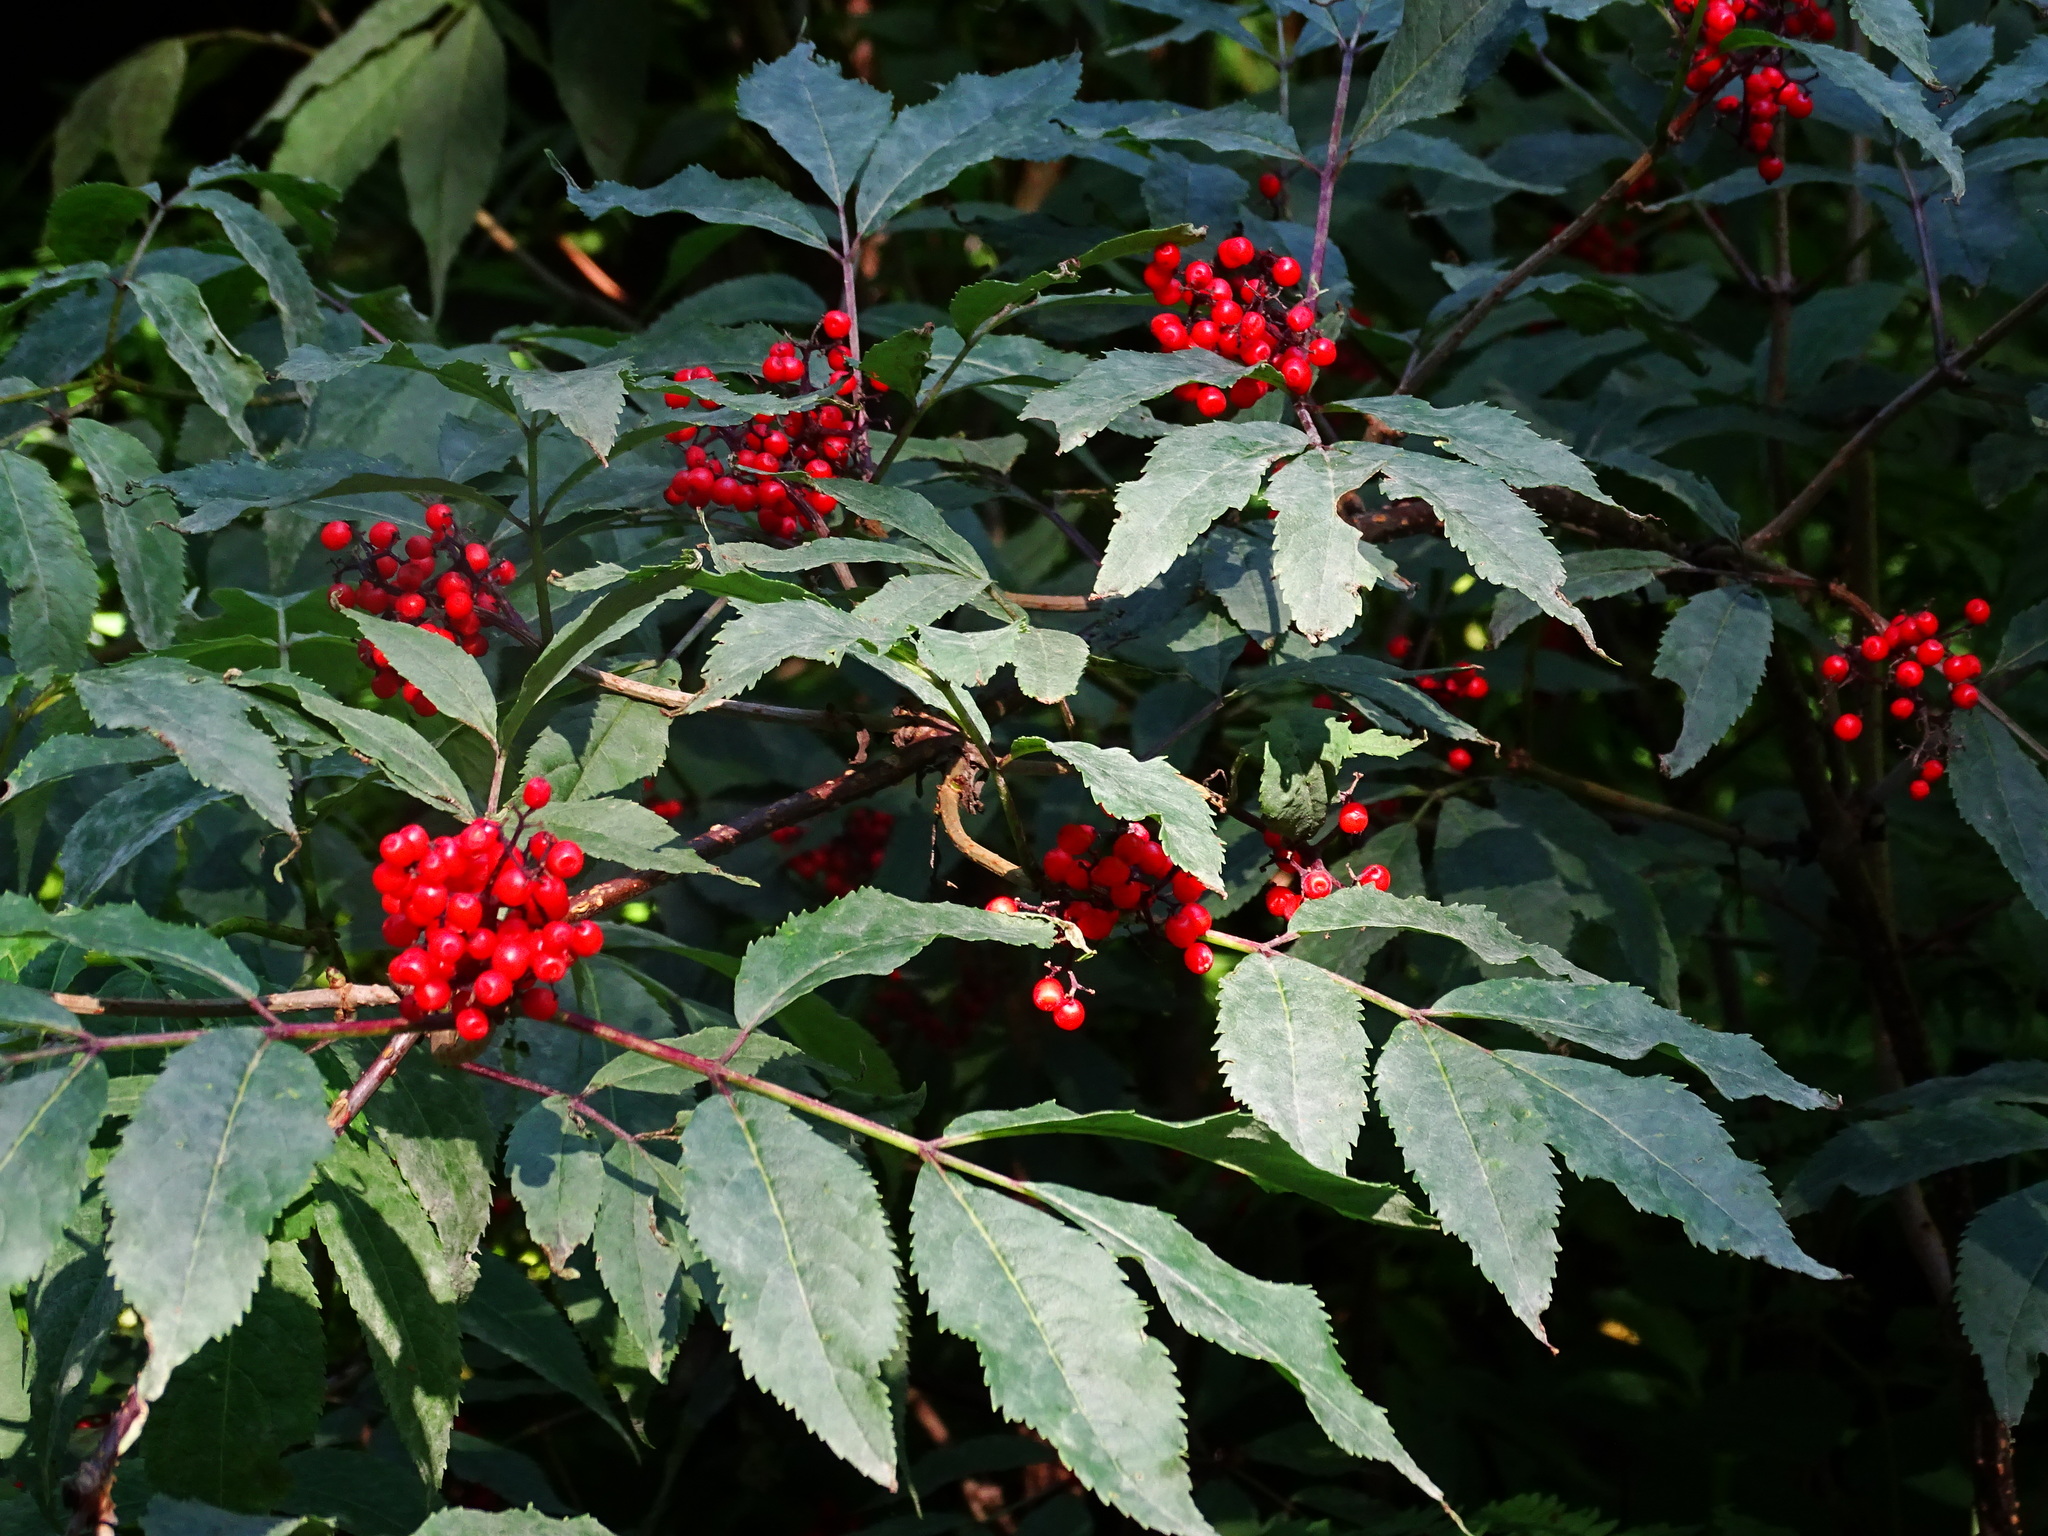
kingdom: Plantae
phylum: Tracheophyta
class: Magnoliopsida
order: Dipsacales
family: Viburnaceae
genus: Sambucus
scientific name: Sambucus racemosa
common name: Red-berried elder
